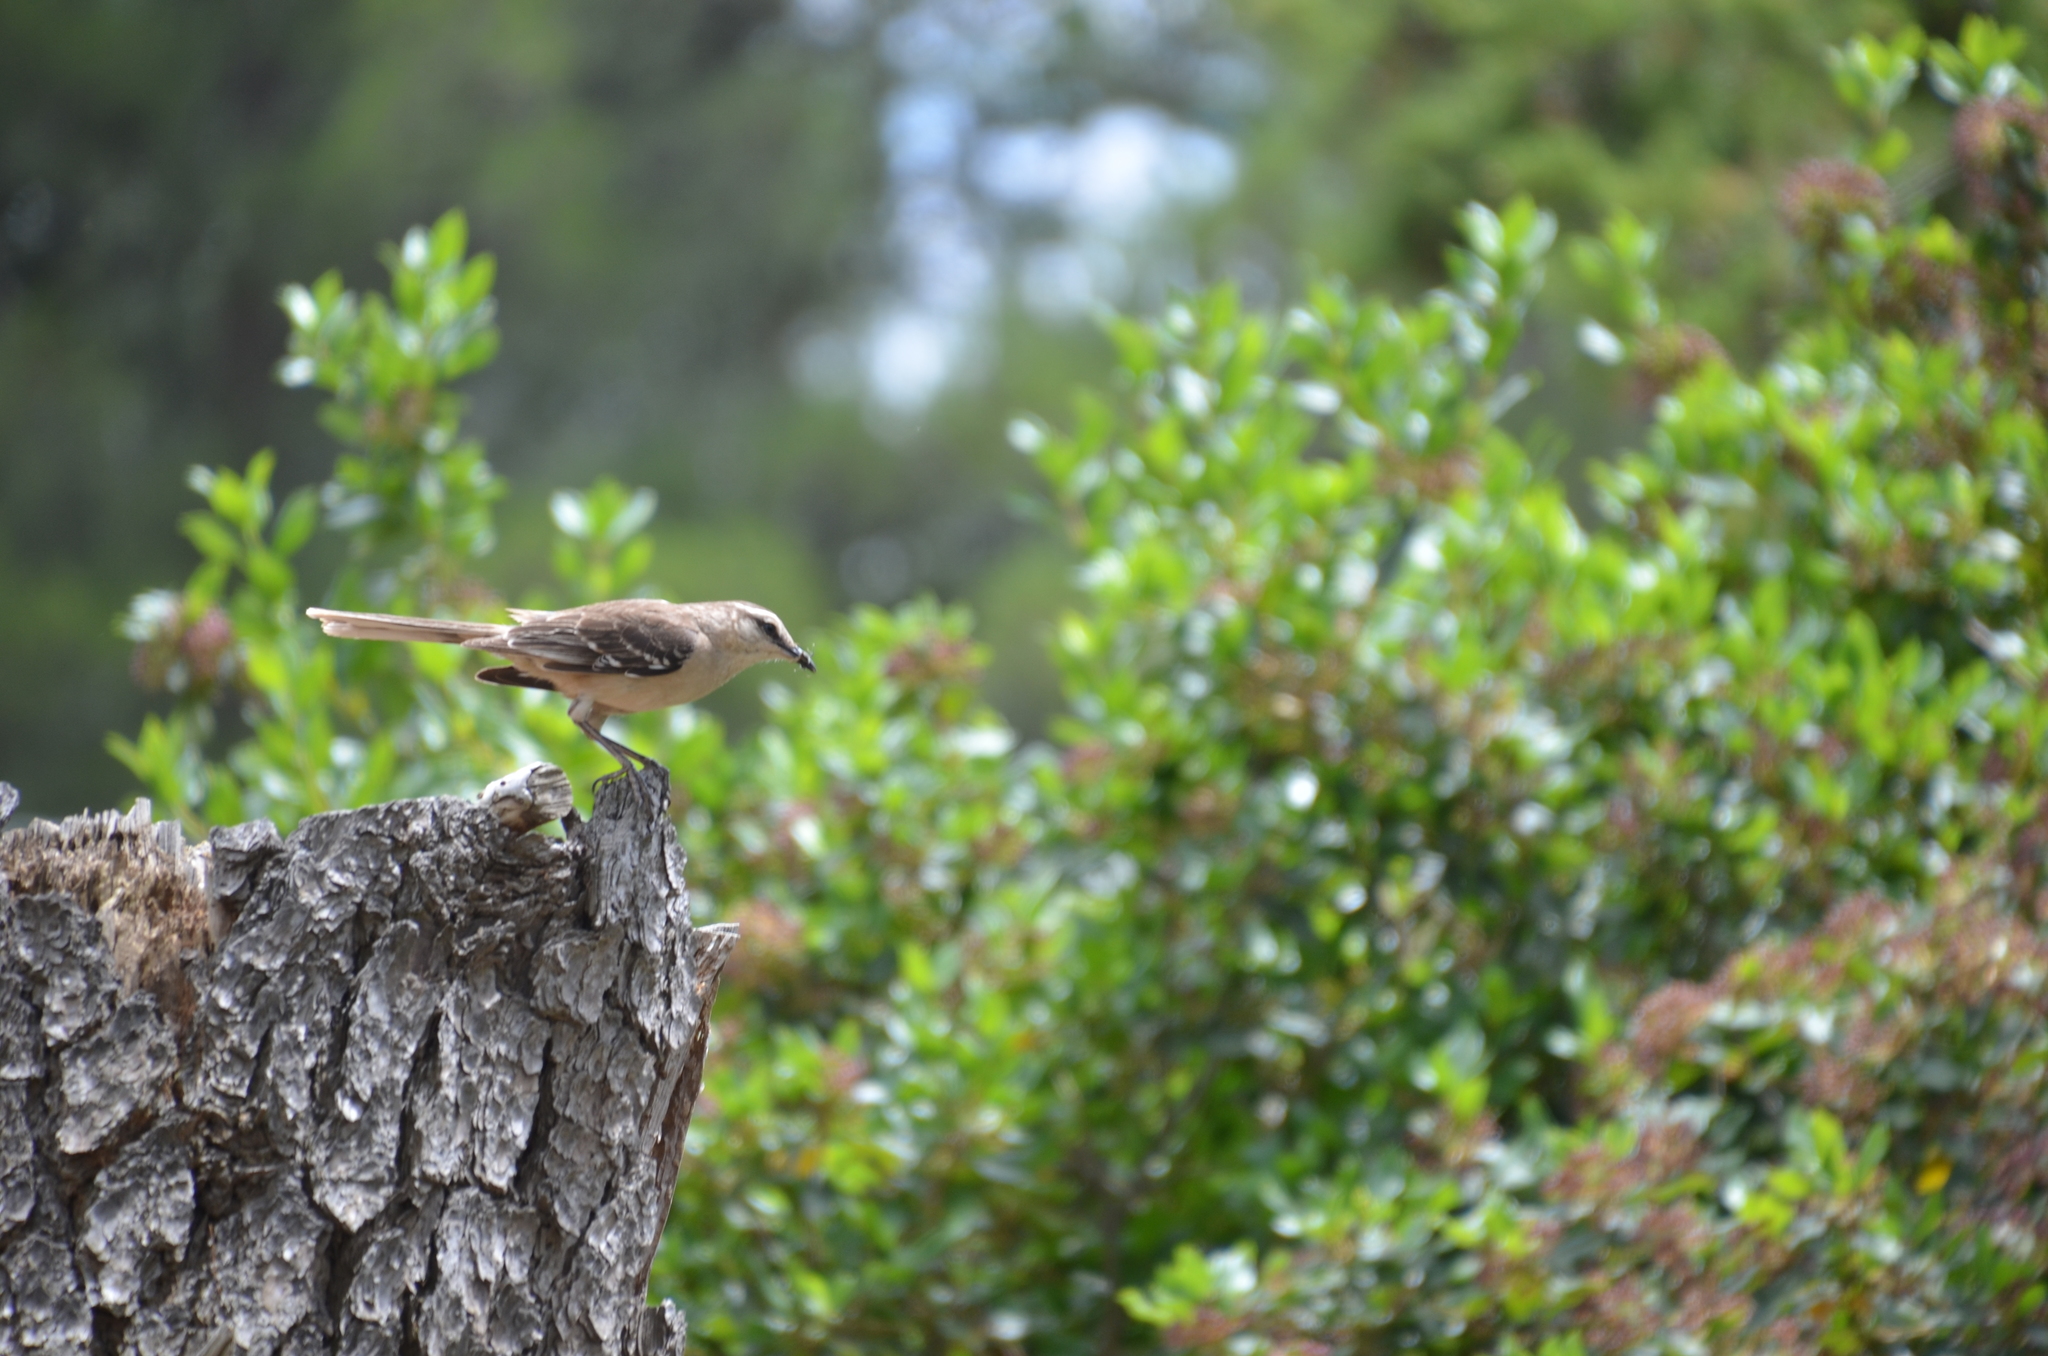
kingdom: Animalia
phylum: Chordata
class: Aves
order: Passeriformes
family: Mimidae
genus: Mimus
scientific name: Mimus saturninus
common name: Chalk-browed mockingbird
